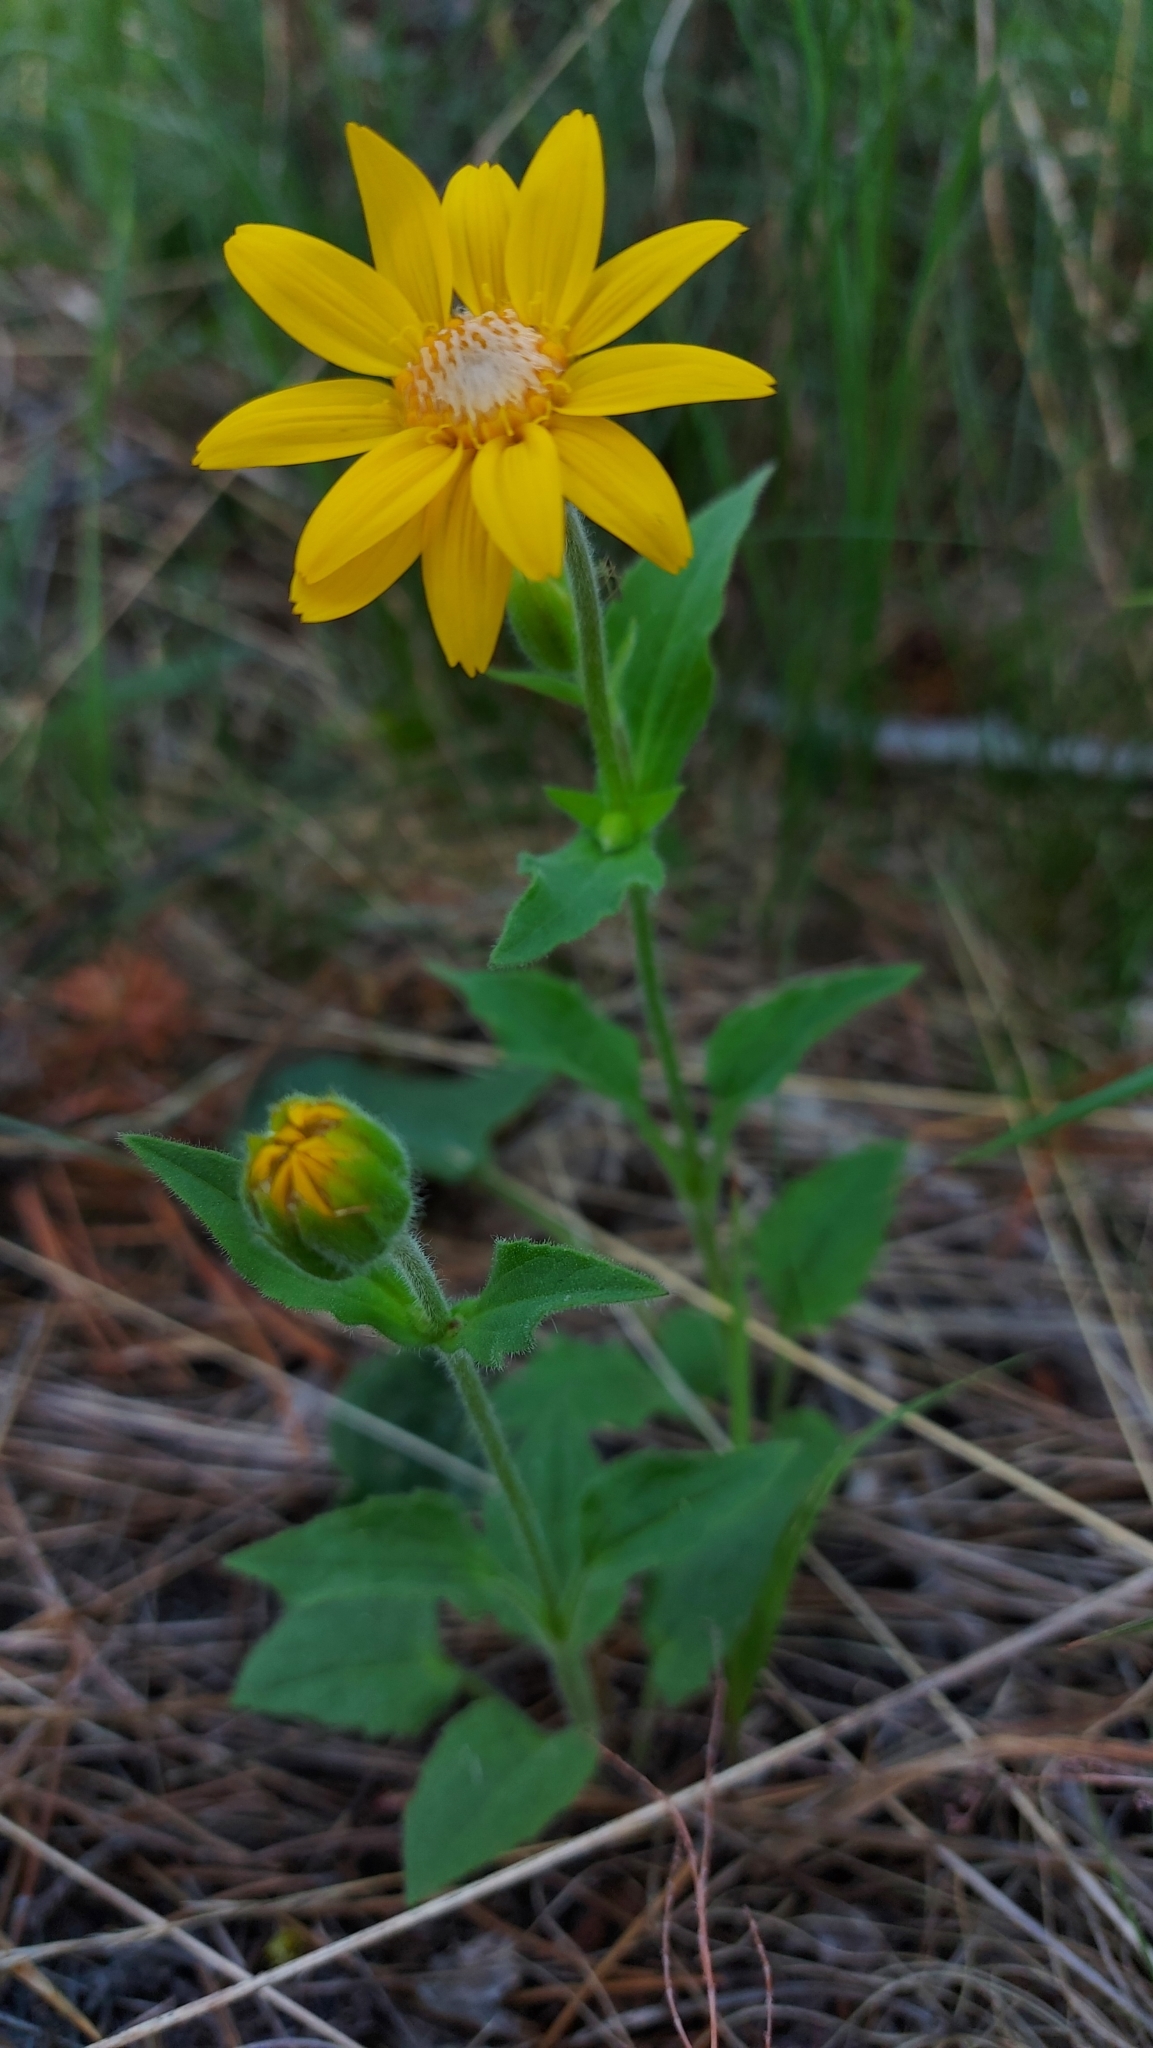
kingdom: Plantae
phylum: Tracheophyta
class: Magnoliopsida
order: Asterales
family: Asteraceae
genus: Arnica
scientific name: Arnica latifolia
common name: Arnica
